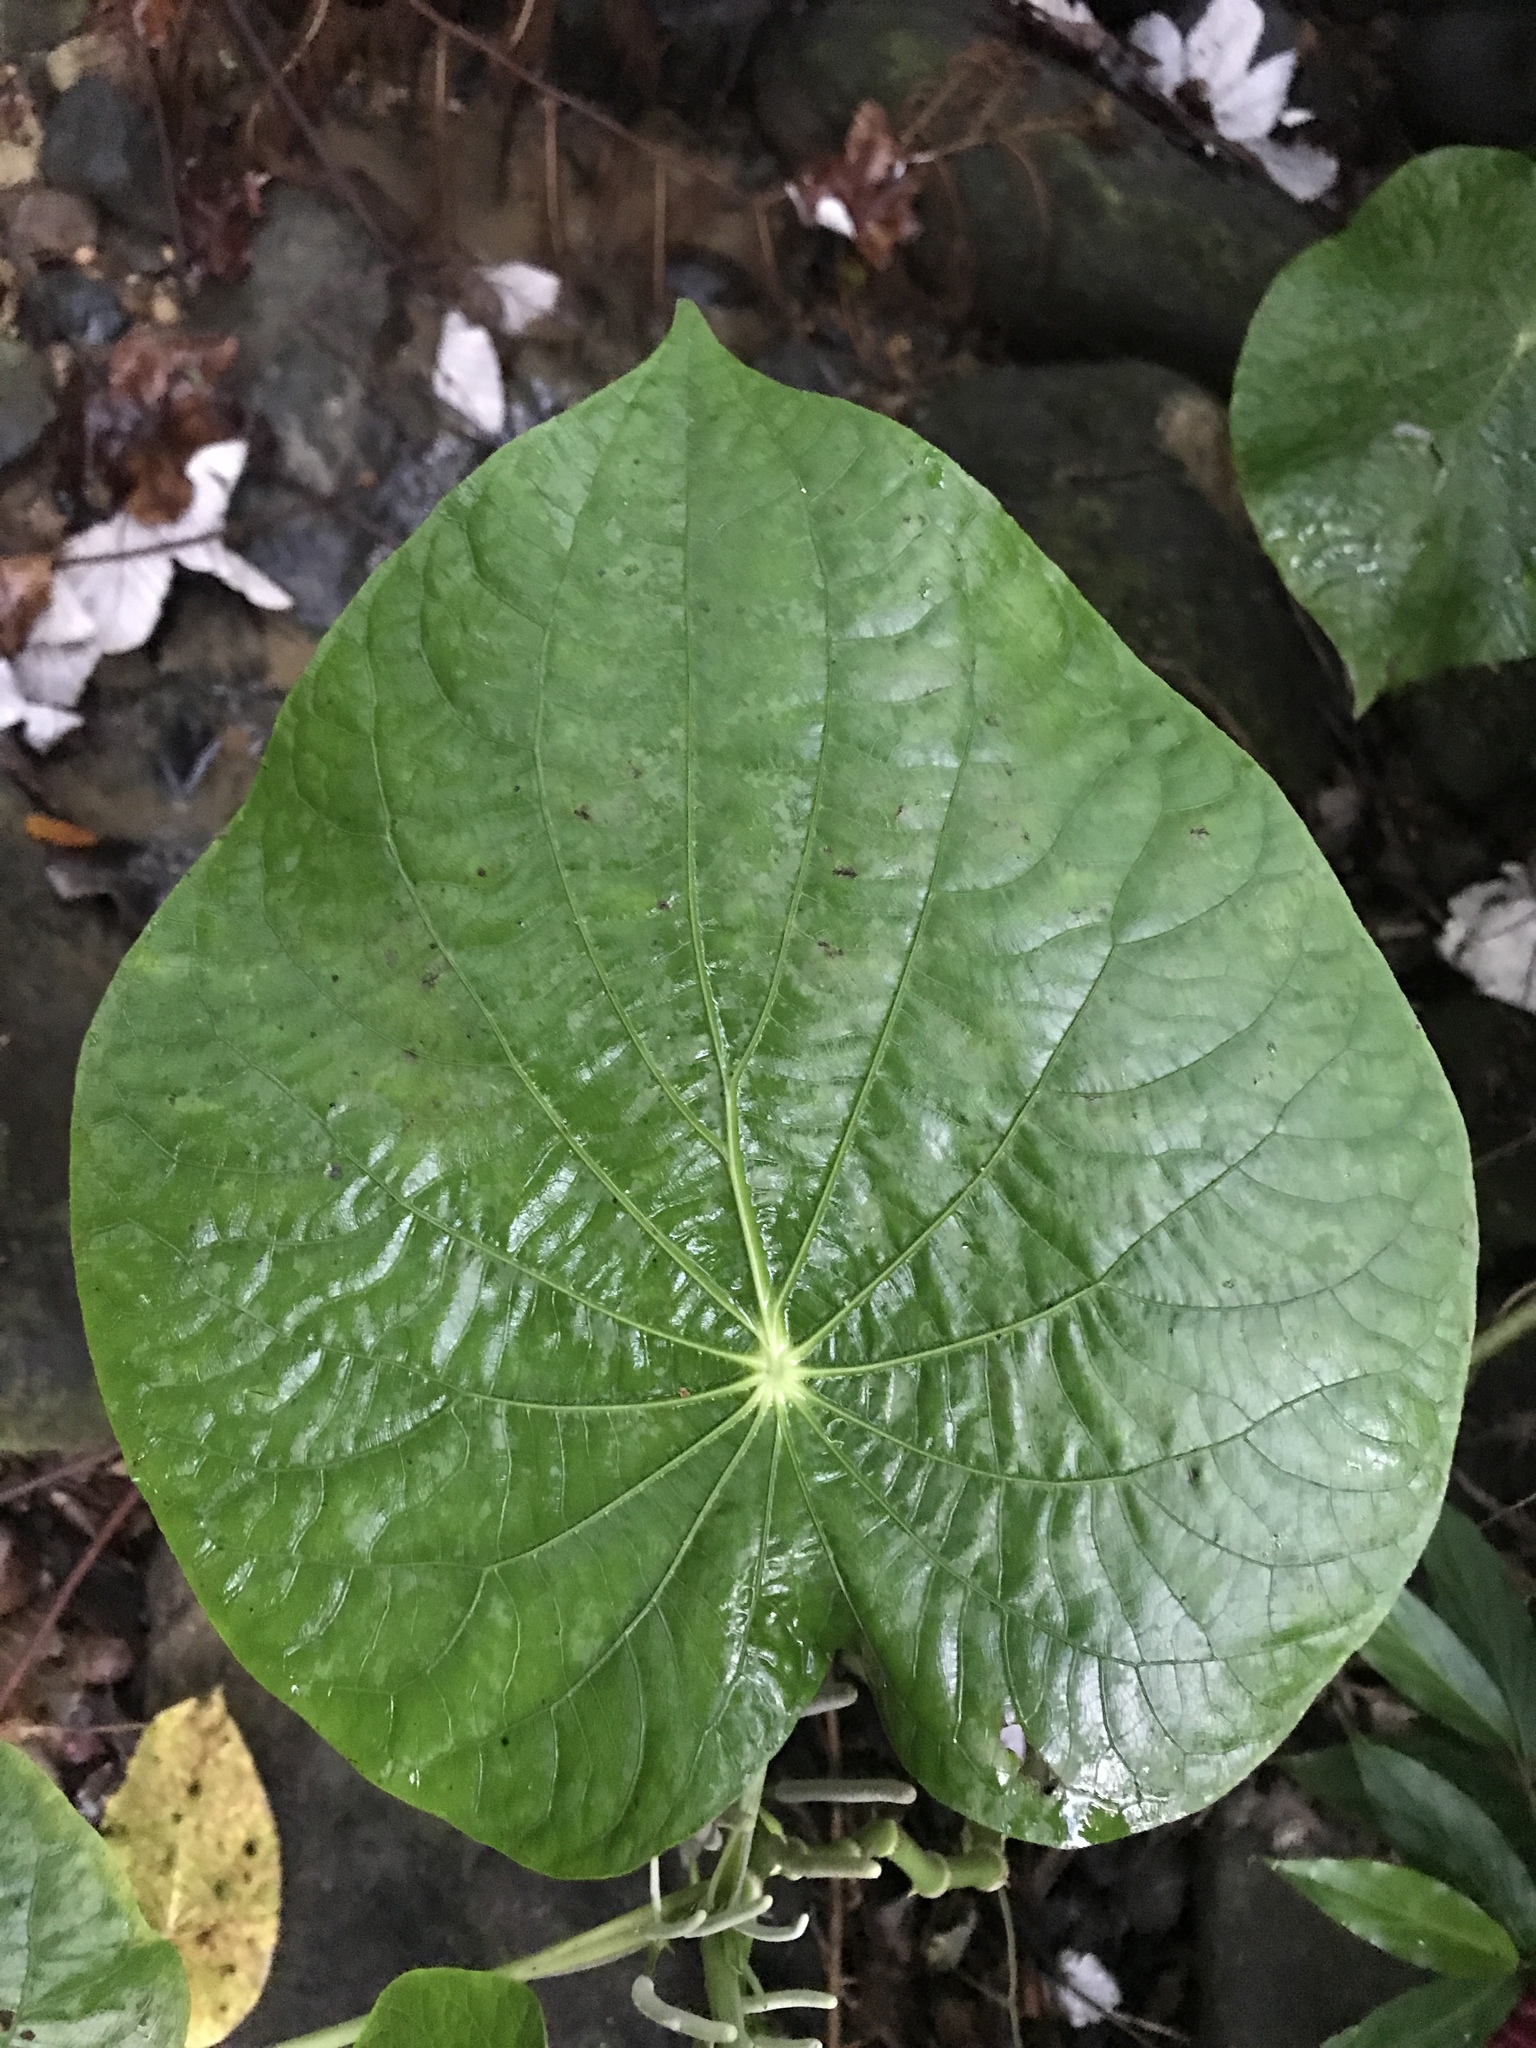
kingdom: Plantae
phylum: Tracheophyta
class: Magnoliopsida
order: Piperales
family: Piperaceae
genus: Piper
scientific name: Piper peltatum
